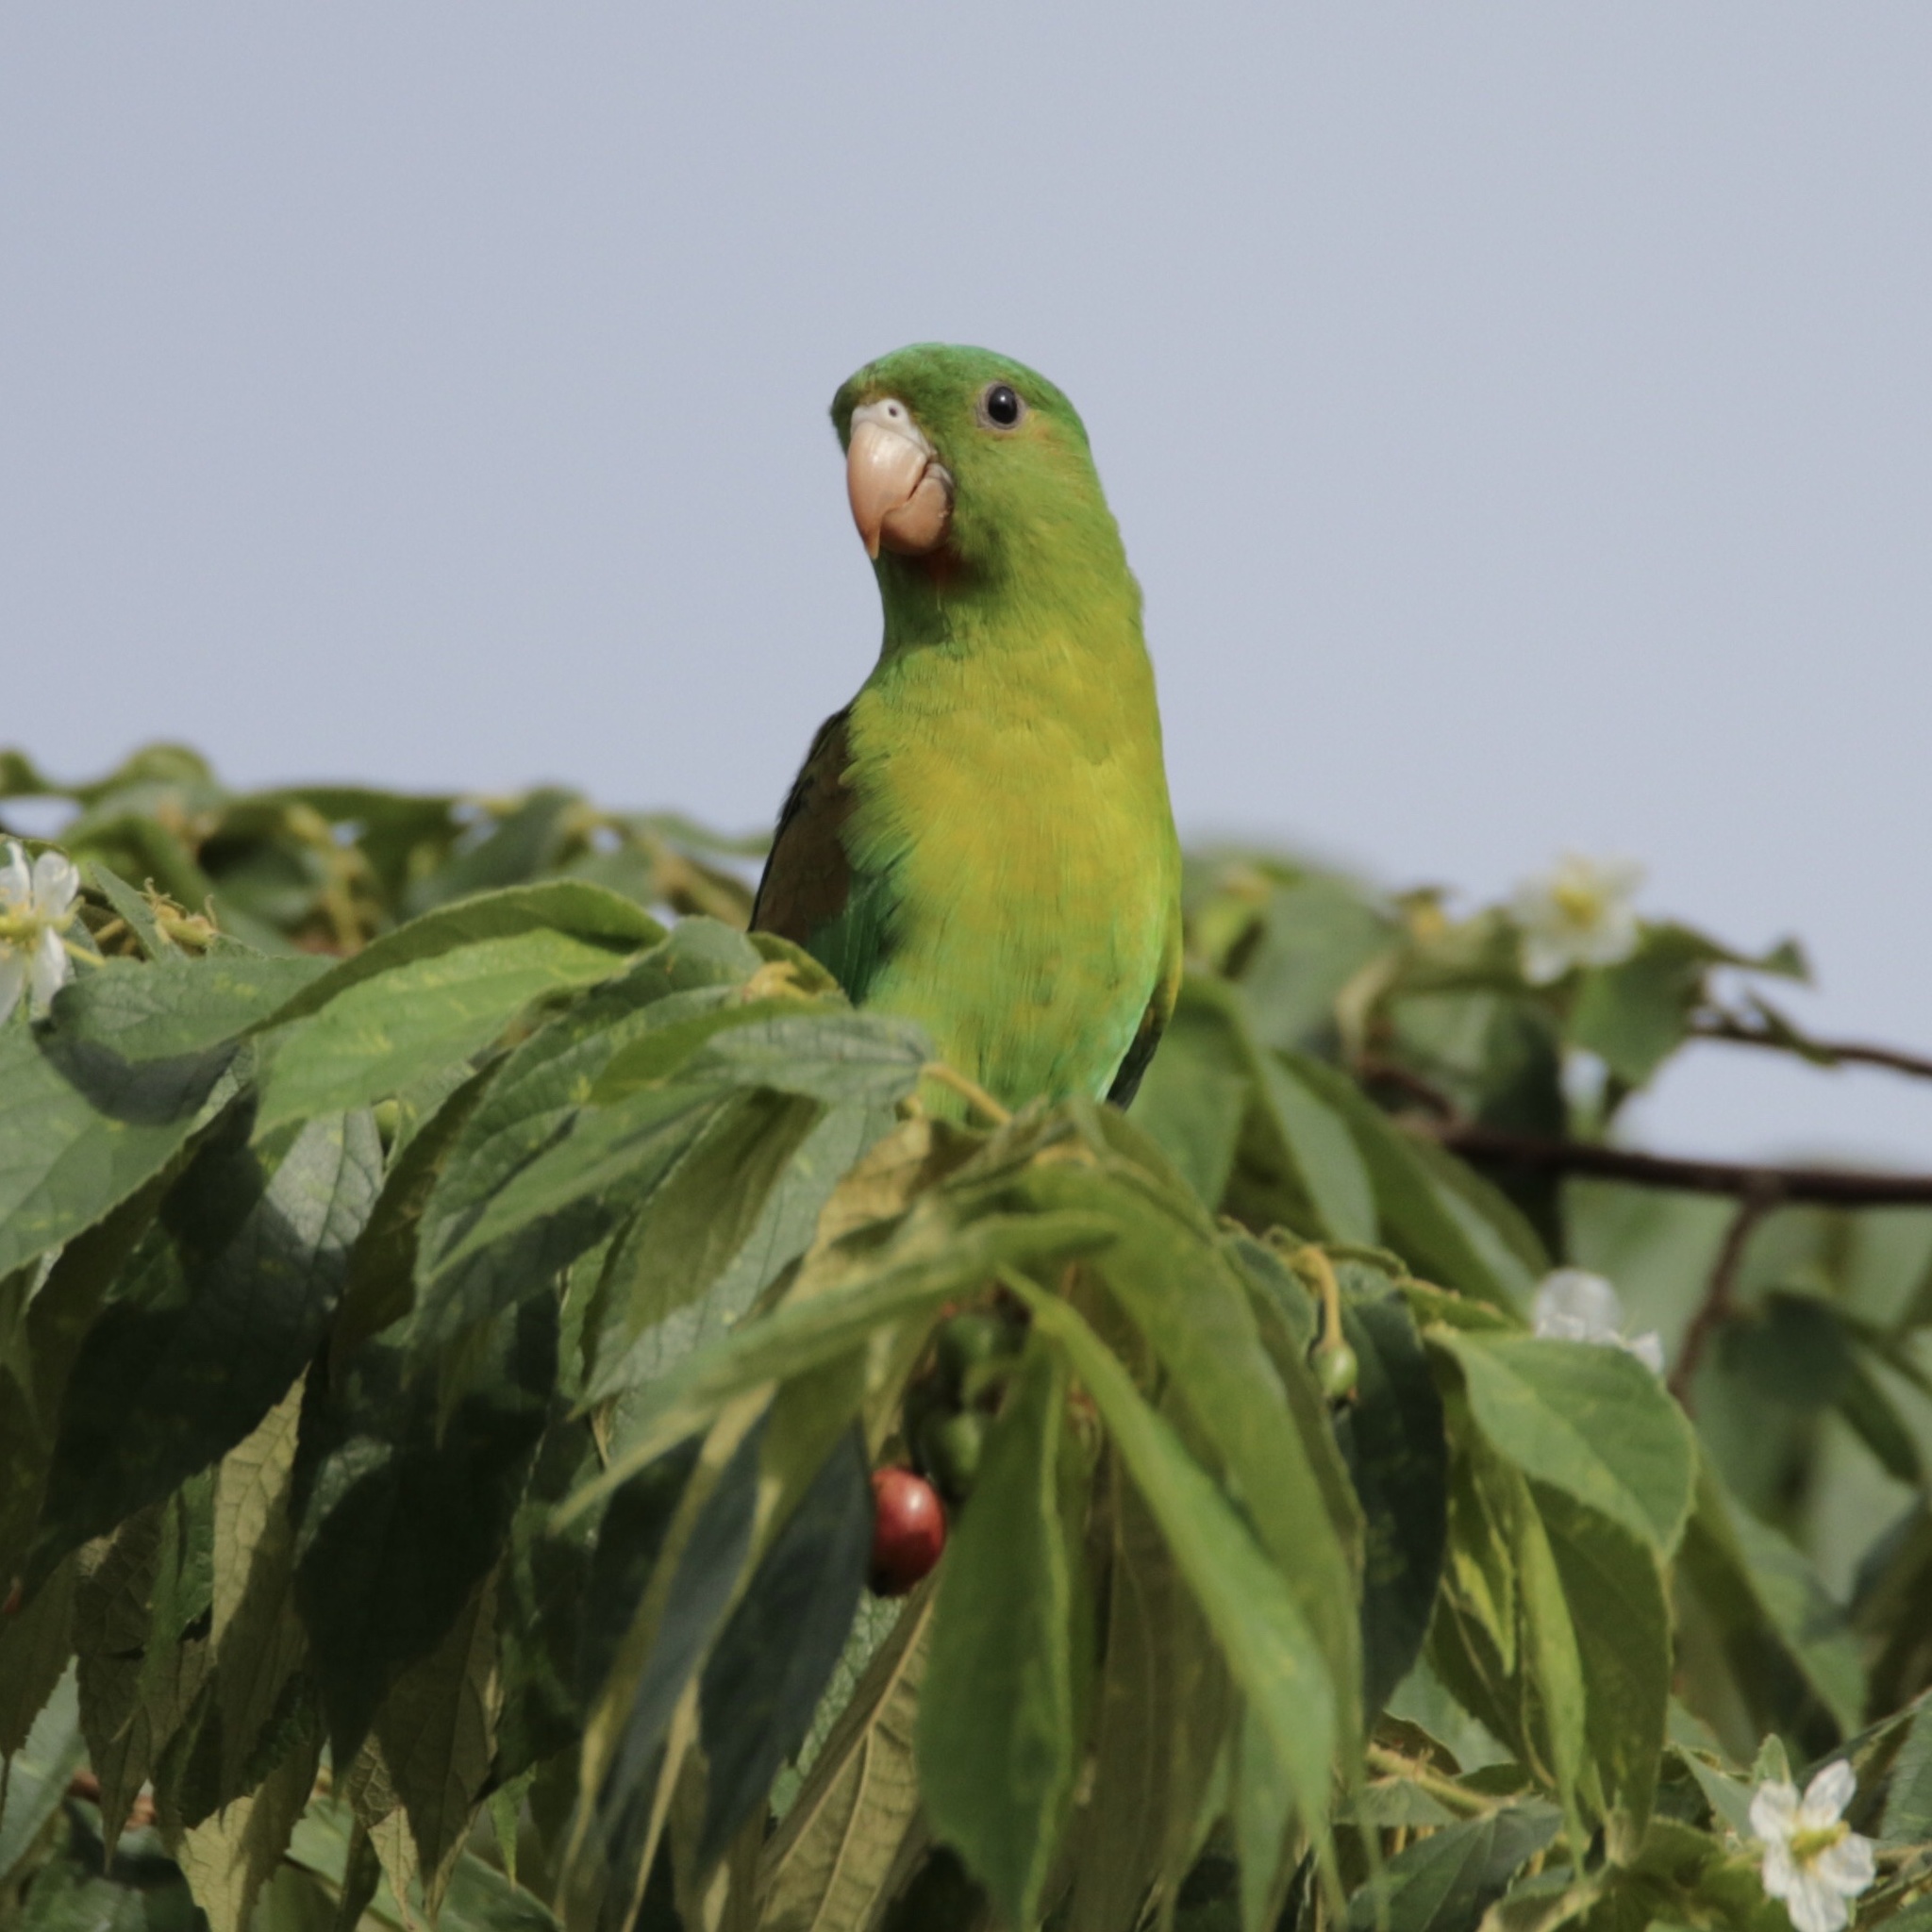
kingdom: Animalia
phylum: Chordata
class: Aves
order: Psittaciformes
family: Psittacidae
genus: Brotogeris
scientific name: Brotogeris jugularis
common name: Orange-chinned parakeet
